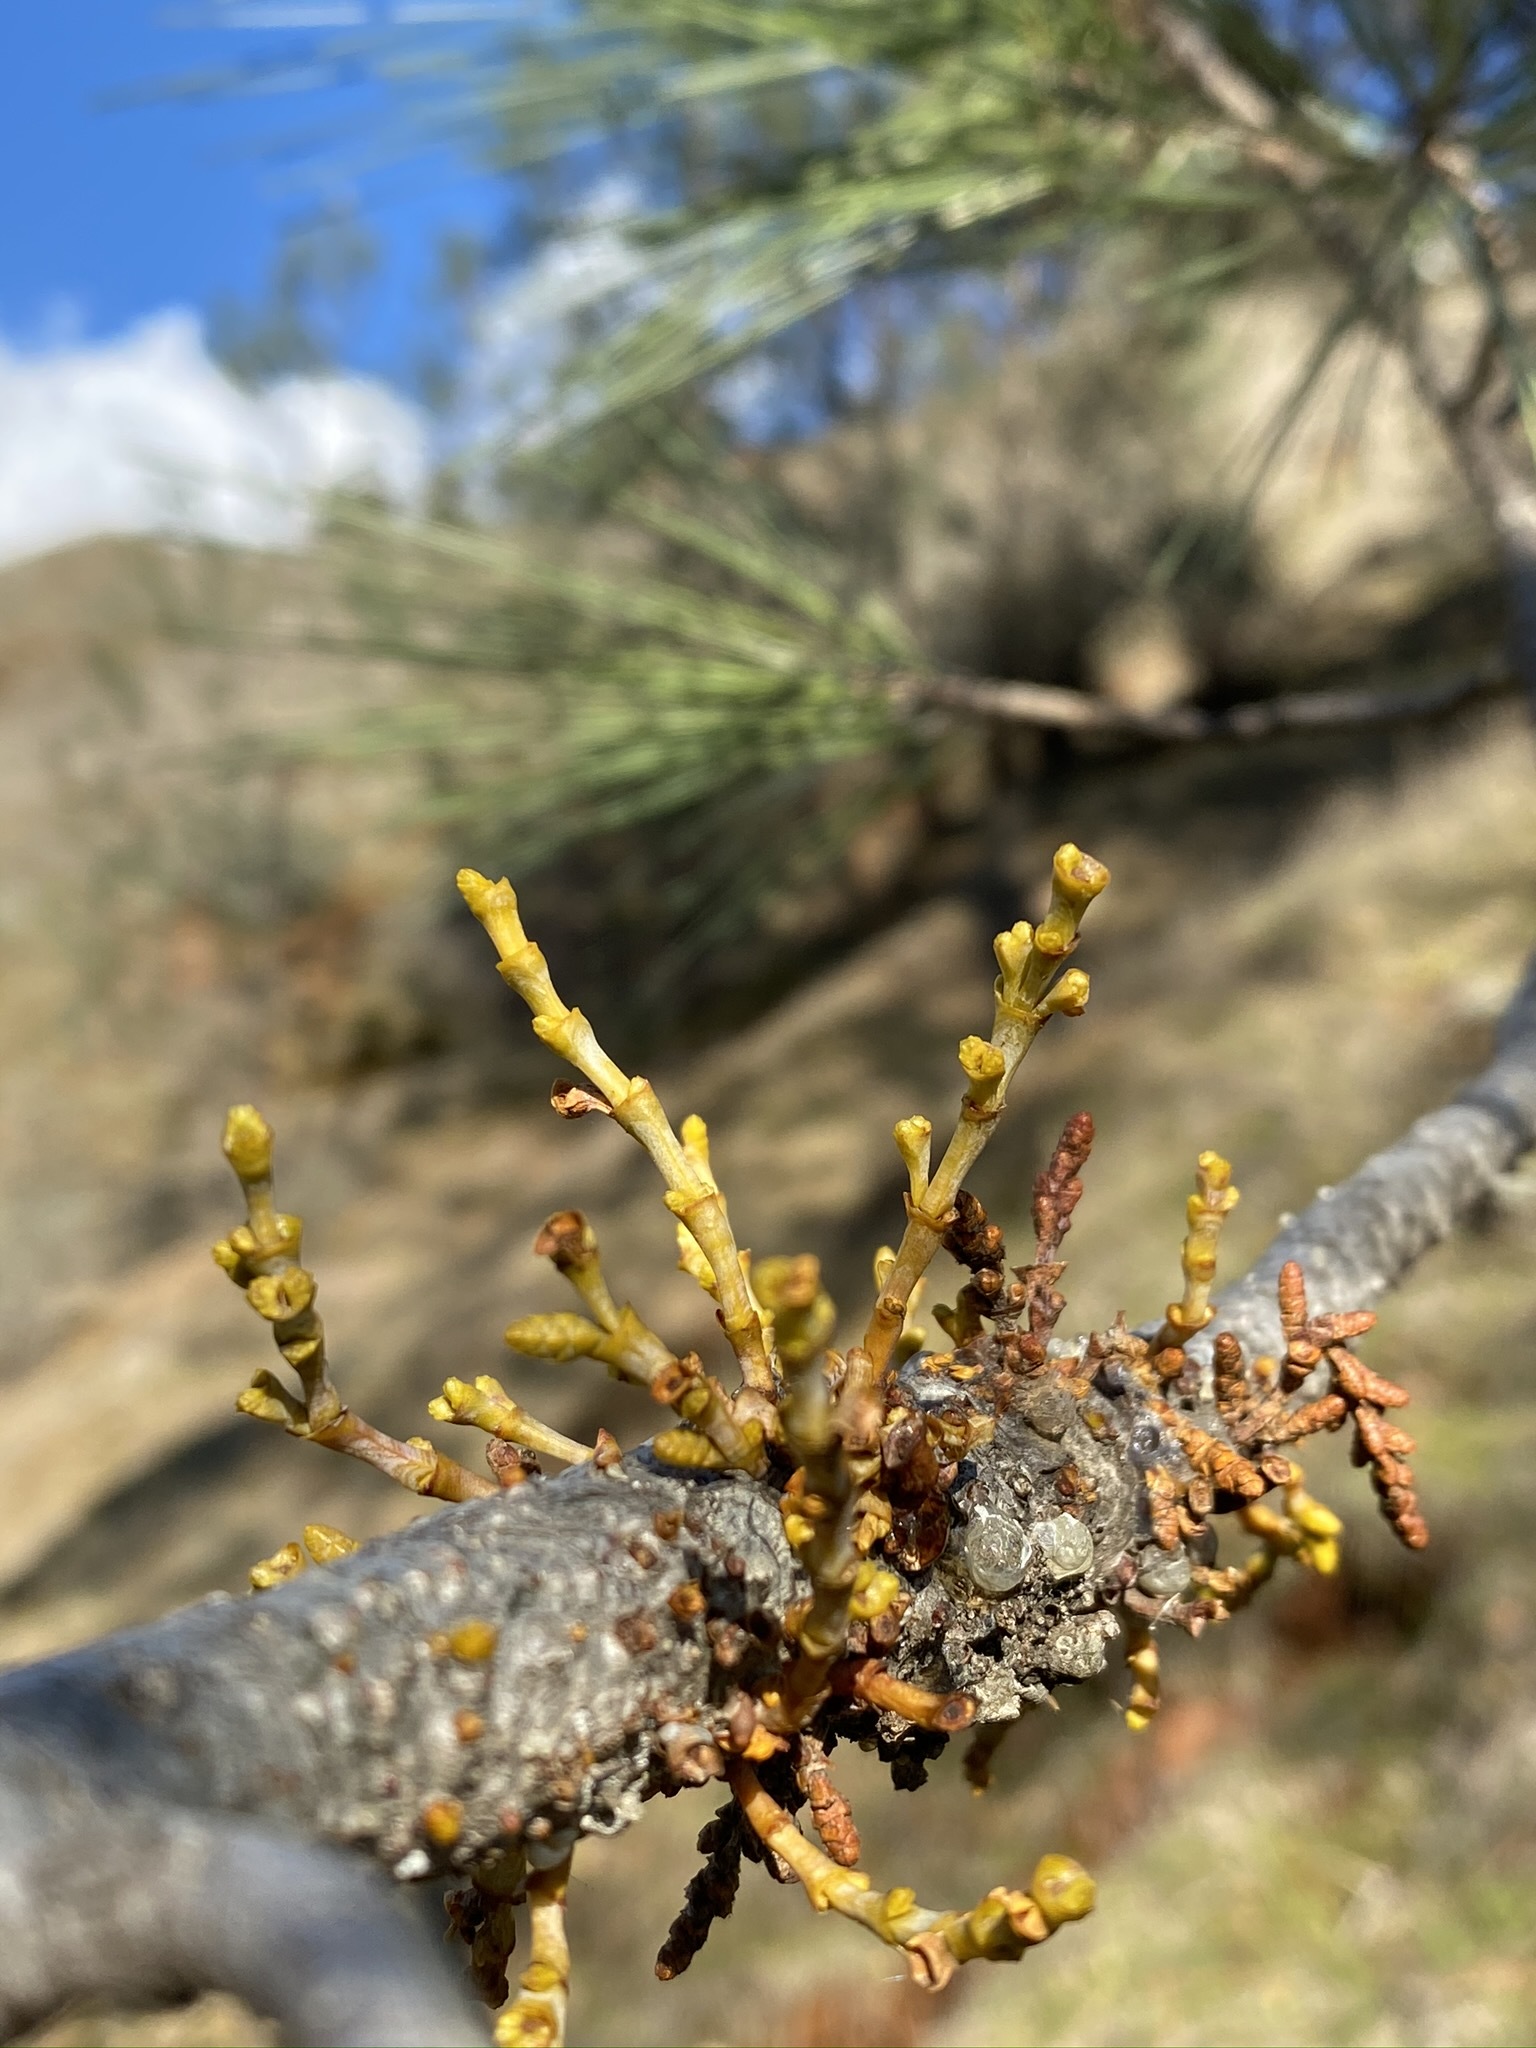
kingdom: Plantae
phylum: Tracheophyta
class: Magnoliopsida
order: Santalales
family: Viscaceae
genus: Arceuthobium
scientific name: Arceuthobium campylopodum
